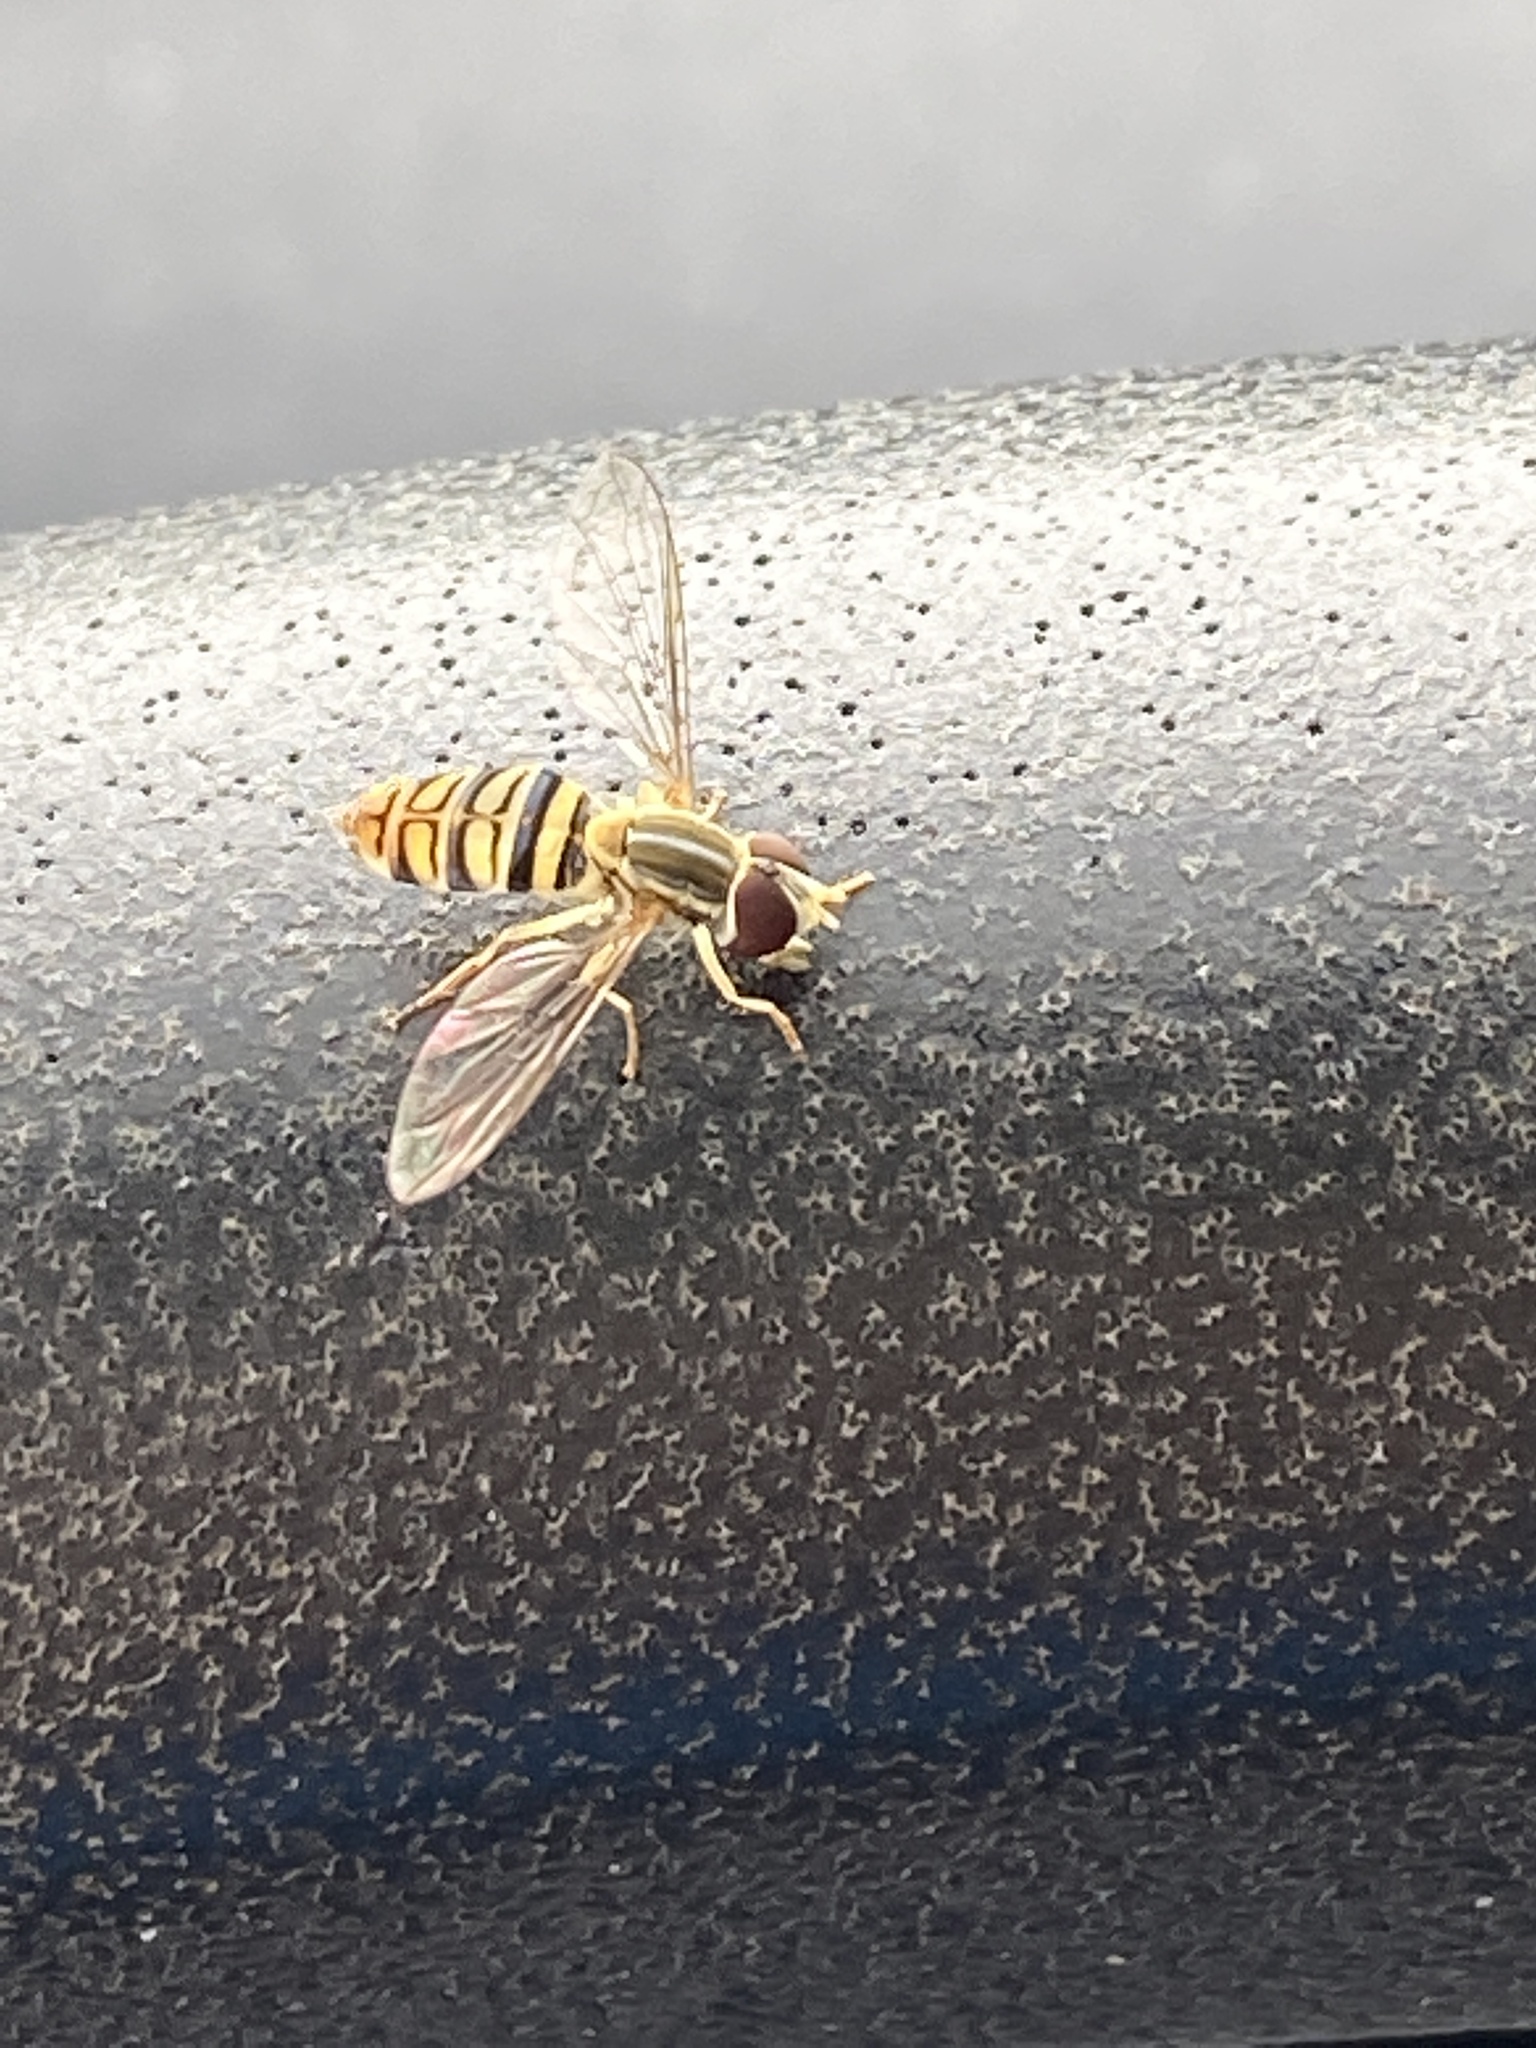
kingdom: Animalia
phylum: Arthropoda
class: Insecta
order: Diptera
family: Syrphidae
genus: Toxomerus
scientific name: Toxomerus politus
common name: Maize calligrapher
